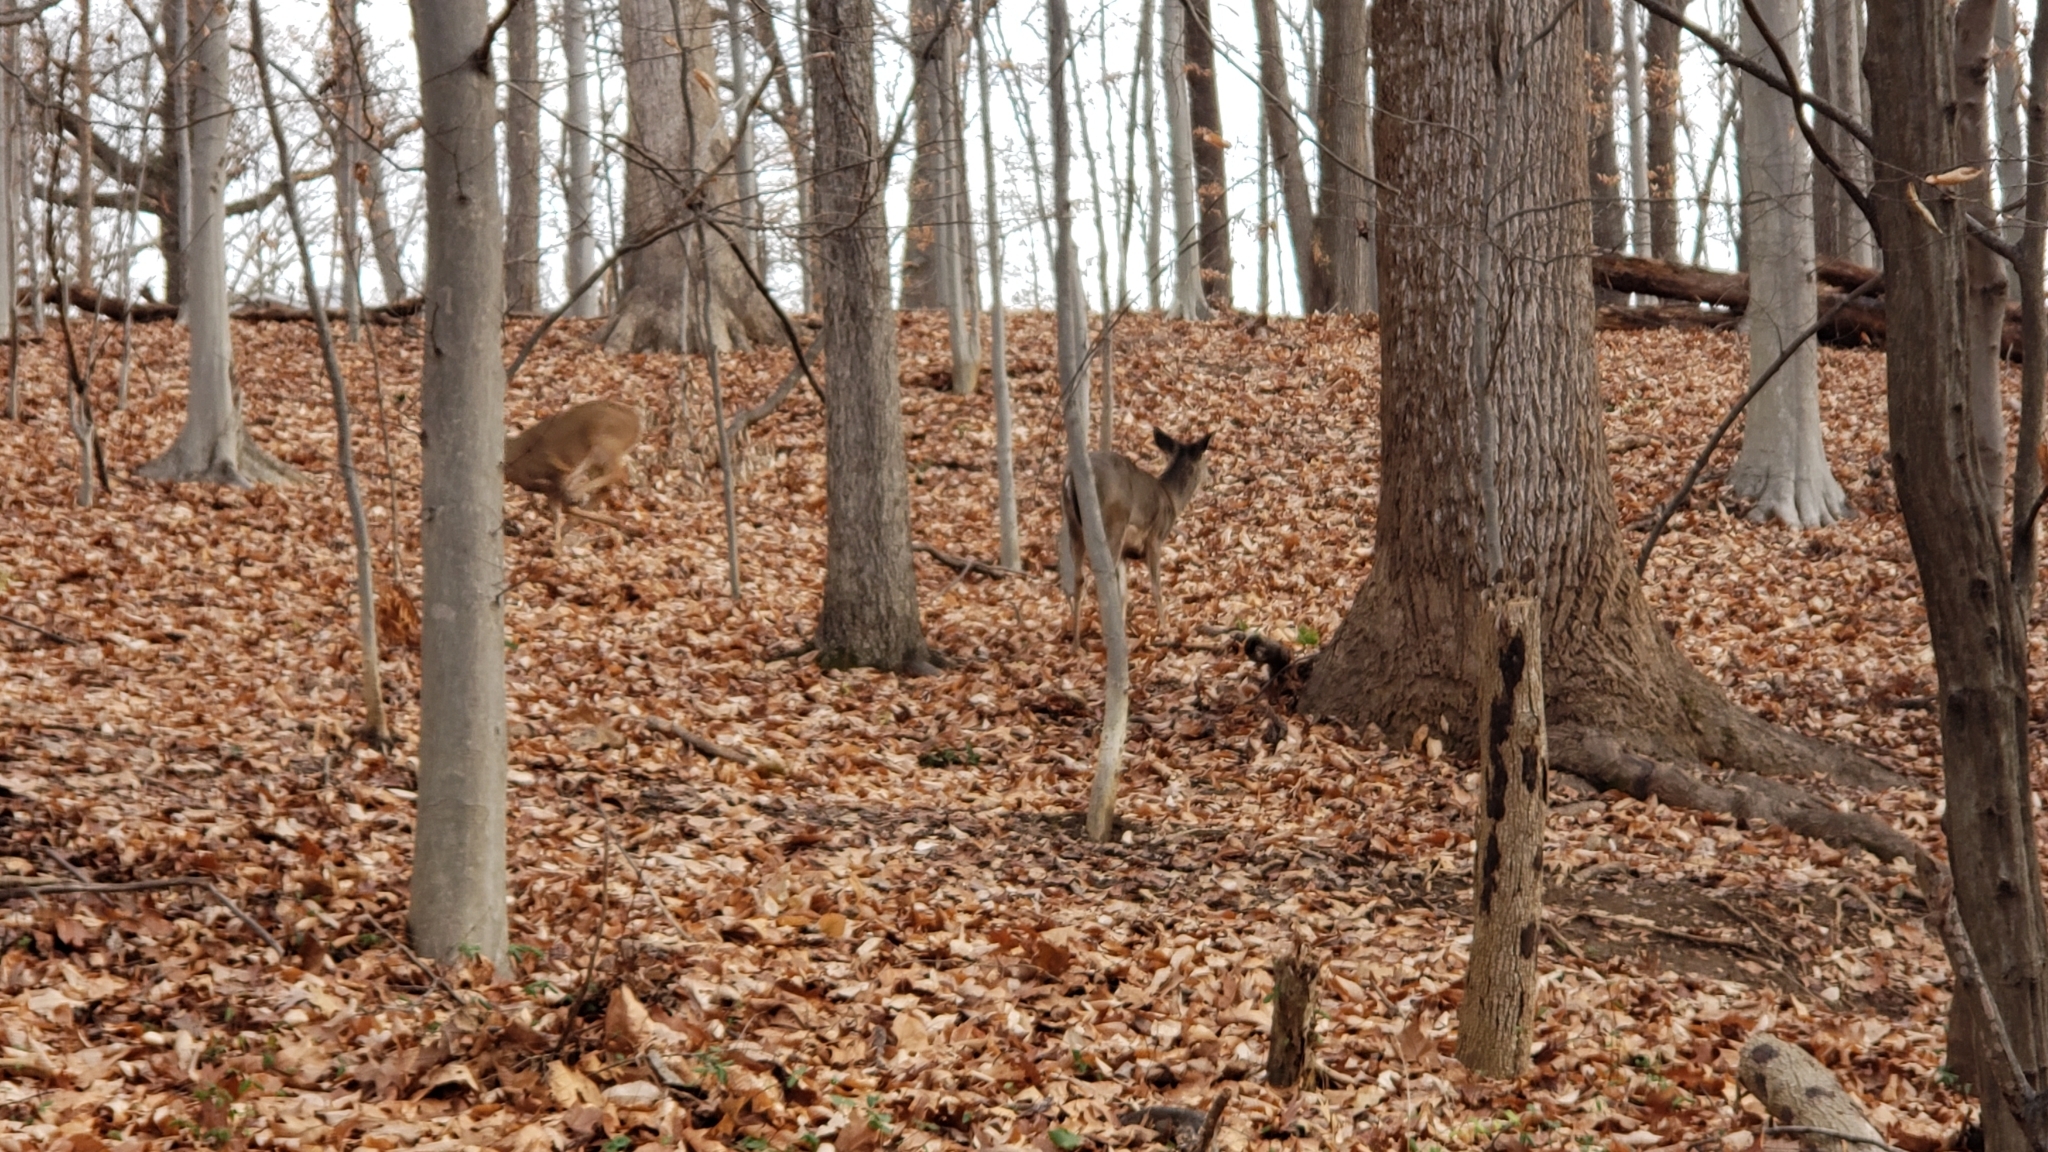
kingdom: Animalia
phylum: Chordata
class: Mammalia
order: Artiodactyla
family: Cervidae
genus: Odocoileus
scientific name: Odocoileus virginianus
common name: White-tailed deer
